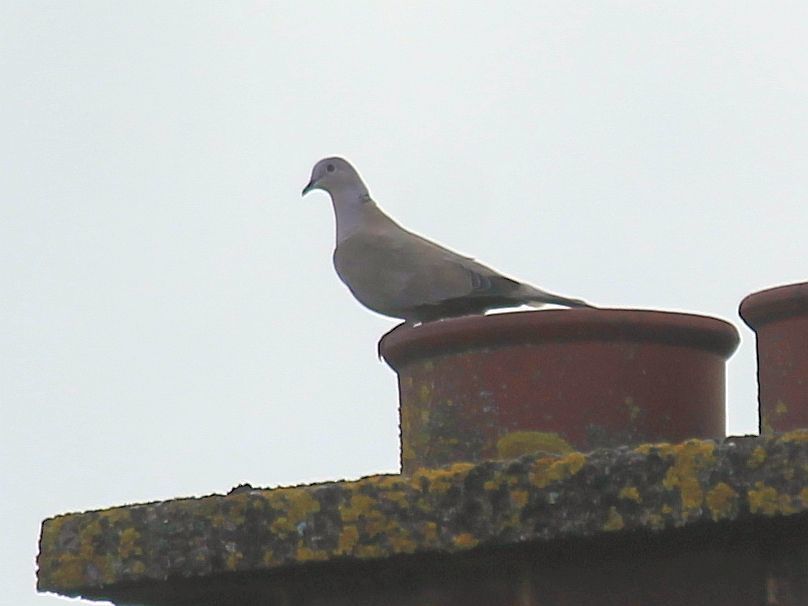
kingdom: Animalia
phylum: Chordata
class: Aves
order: Columbiformes
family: Columbidae
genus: Streptopelia
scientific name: Streptopelia decaocto
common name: Eurasian collared dove
